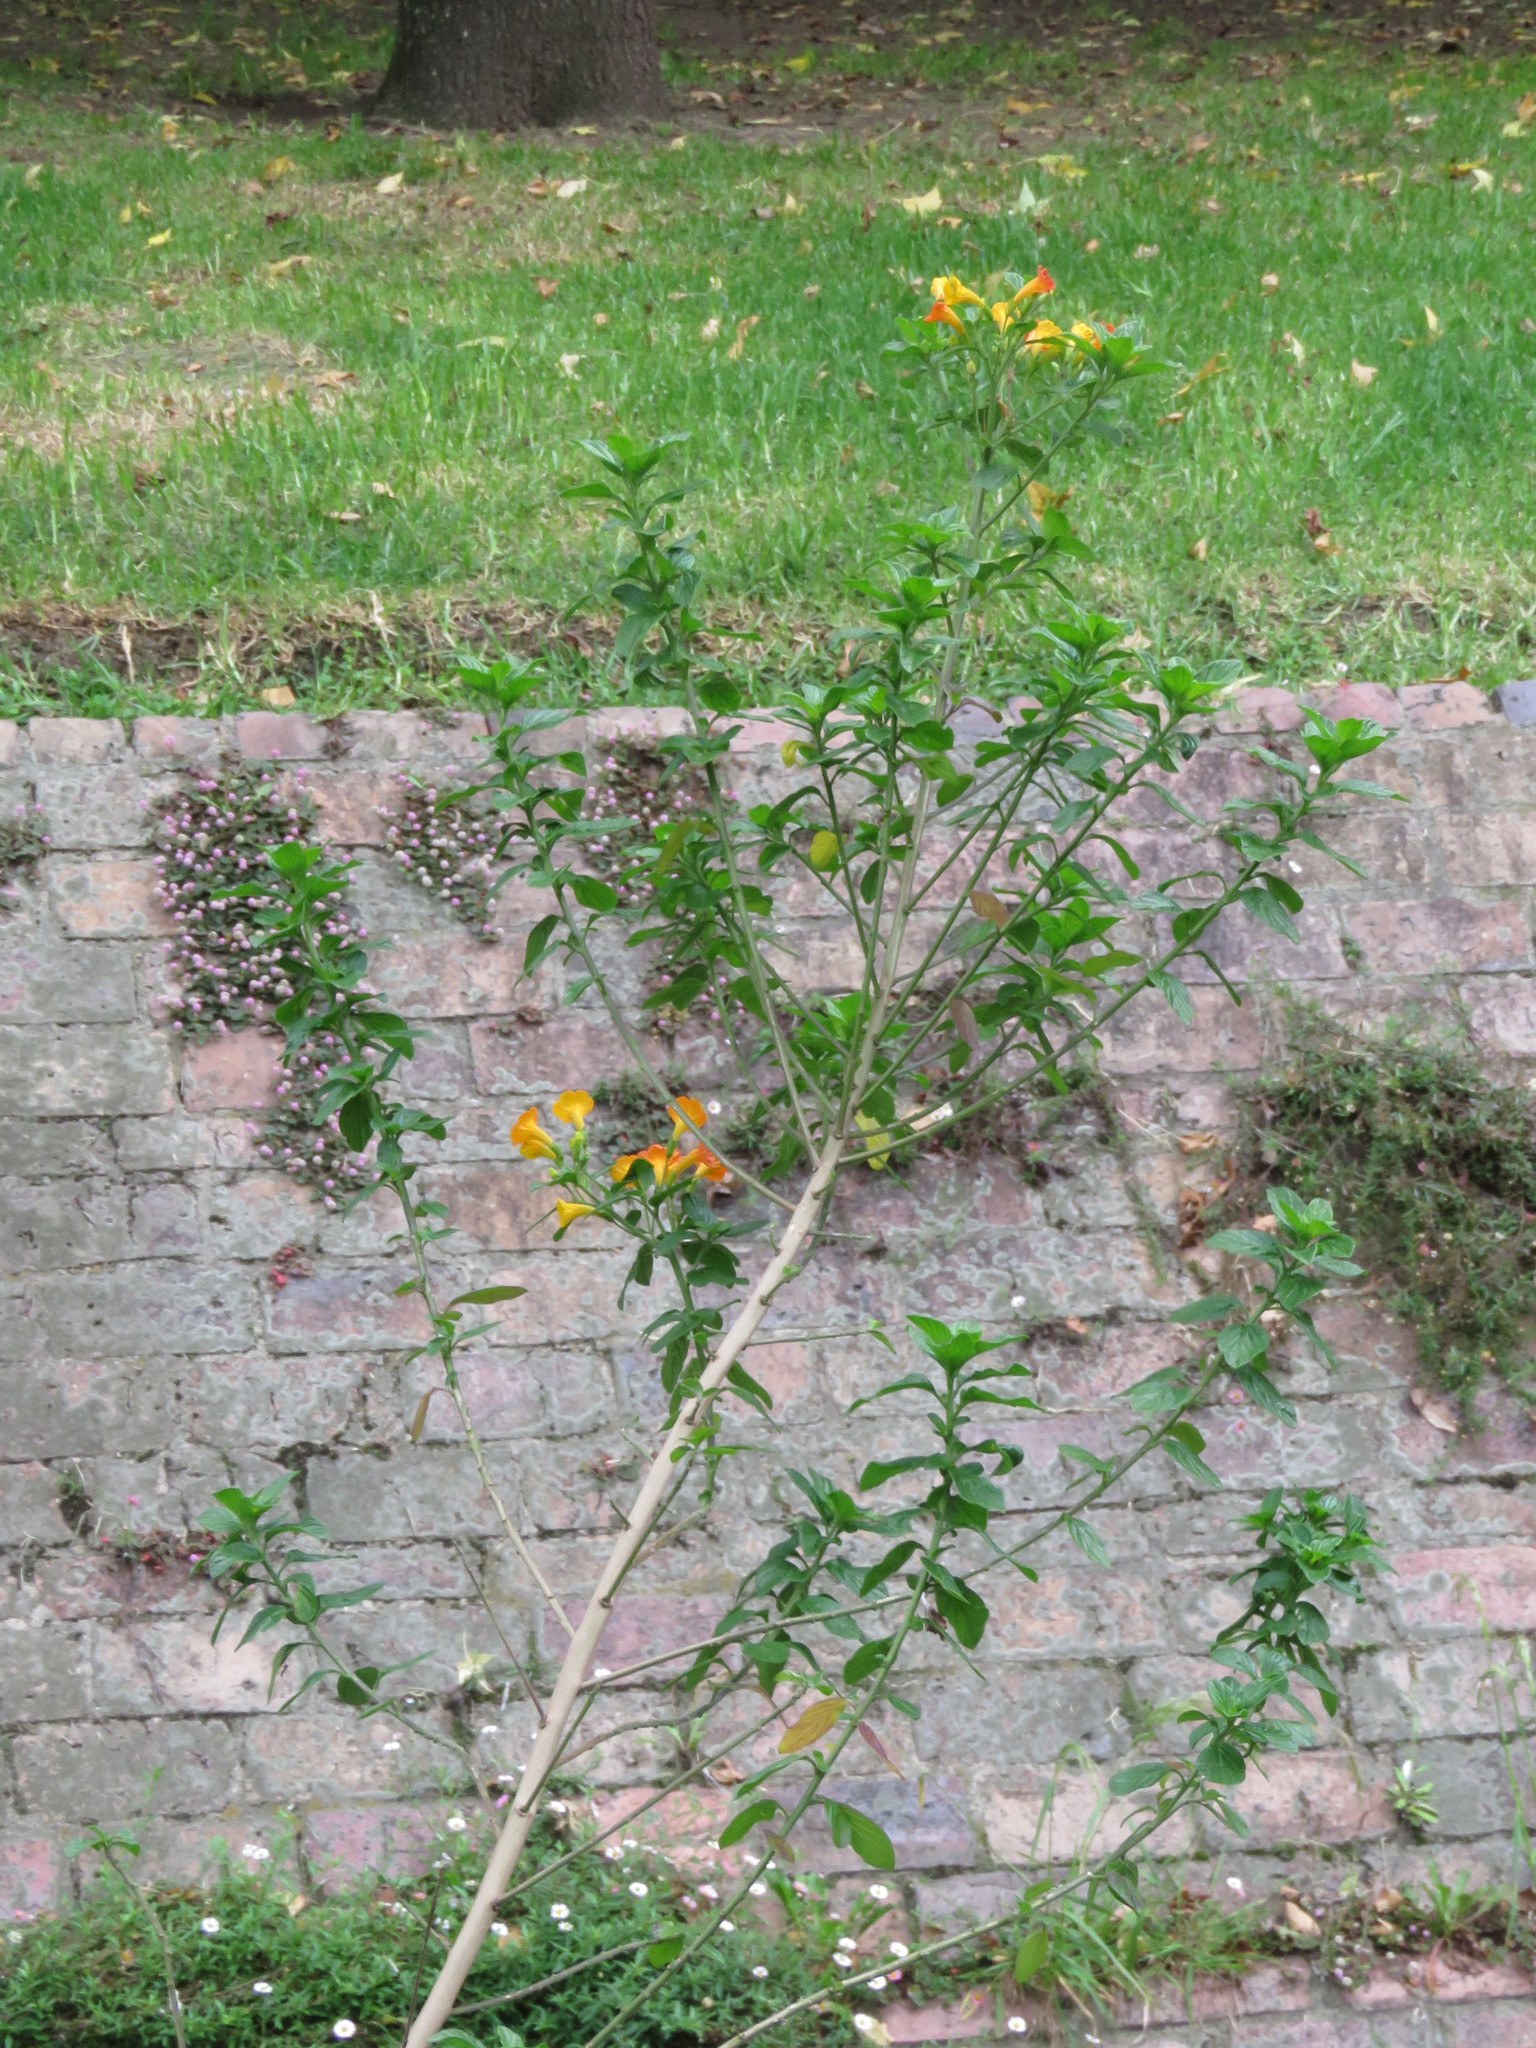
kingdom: Plantae
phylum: Tracheophyta
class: Magnoliopsida
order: Solanales
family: Solanaceae
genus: Streptosolen
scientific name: Streptosolen jamesonii
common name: Marmalade bush
